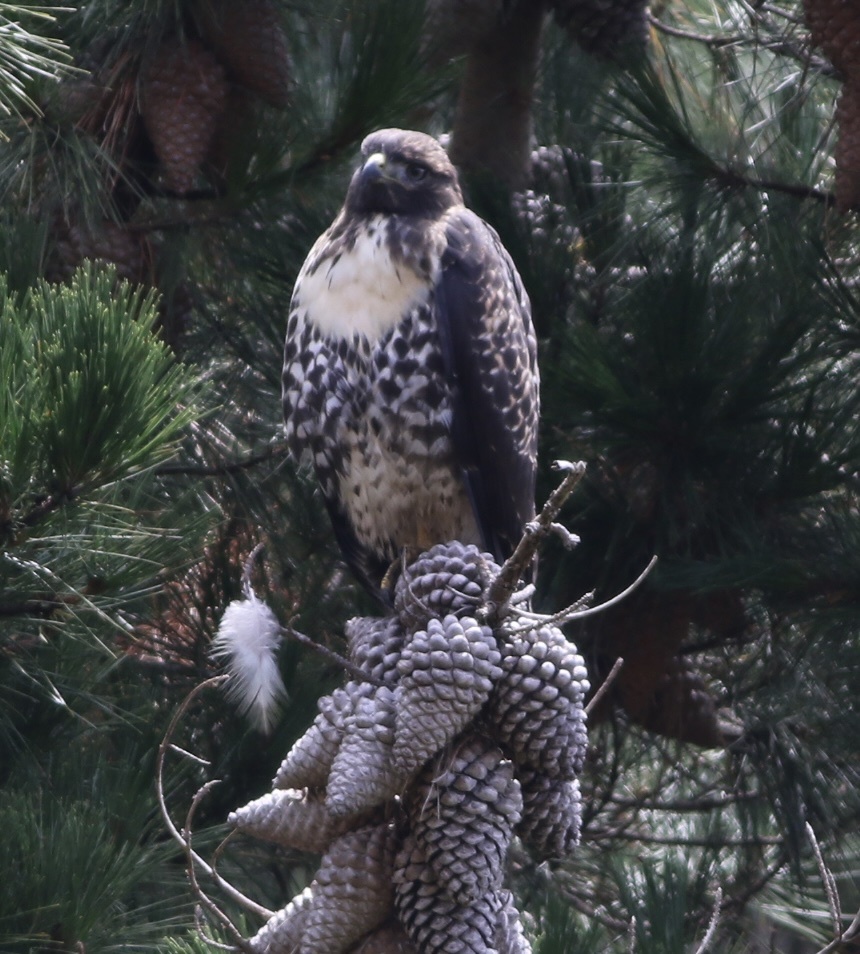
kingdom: Animalia
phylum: Chordata
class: Aves
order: Accipitriformes
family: Accipitridae
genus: Buteo
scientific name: Buteo jamaicensis
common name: Red-tailed hawk
